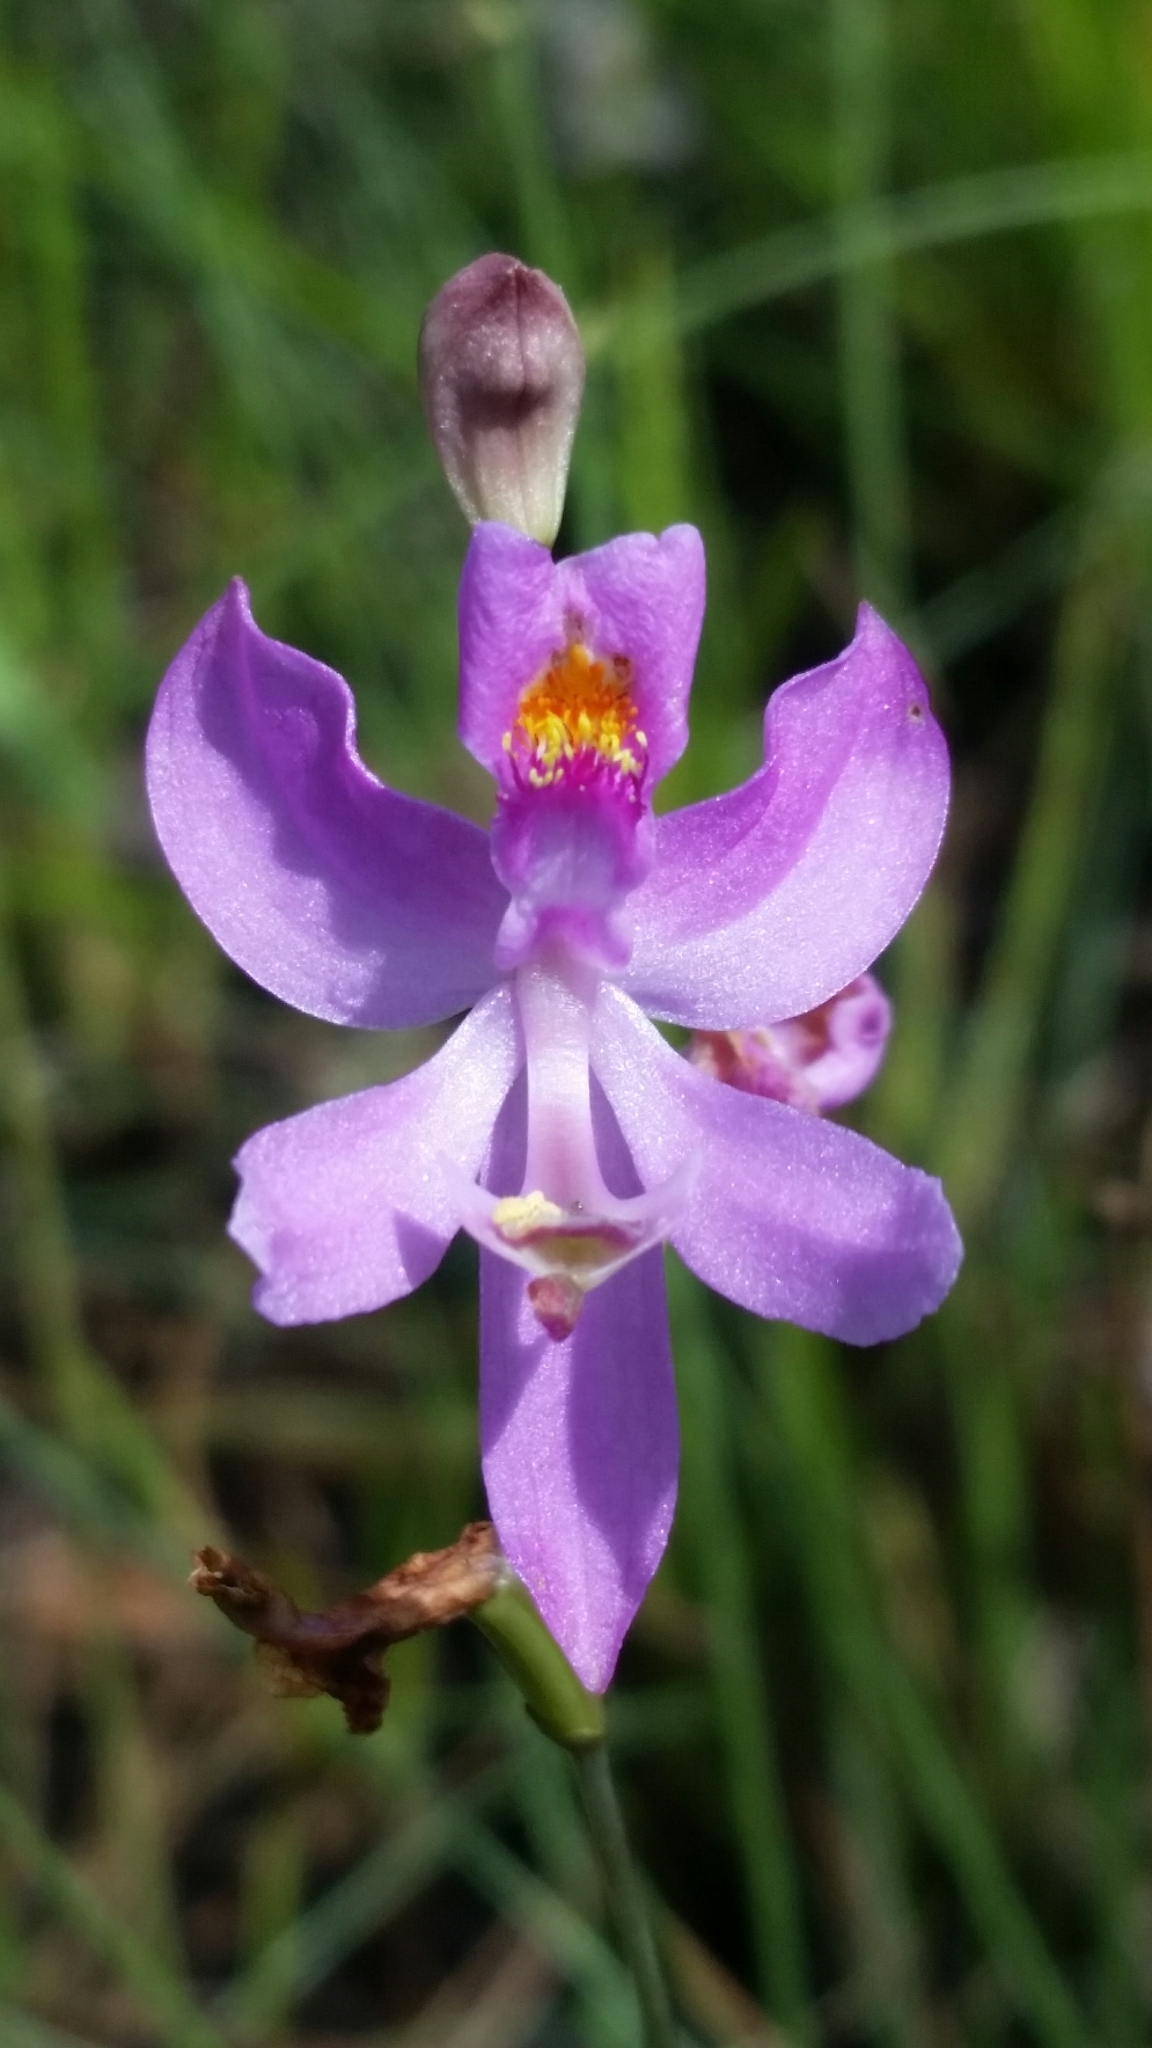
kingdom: Plantae
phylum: Tracheophyta
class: Liliopsida
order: Asparagales
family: Orchidaceae
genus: Calopogon
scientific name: Calopogon pallidus
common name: Pale grasspink
